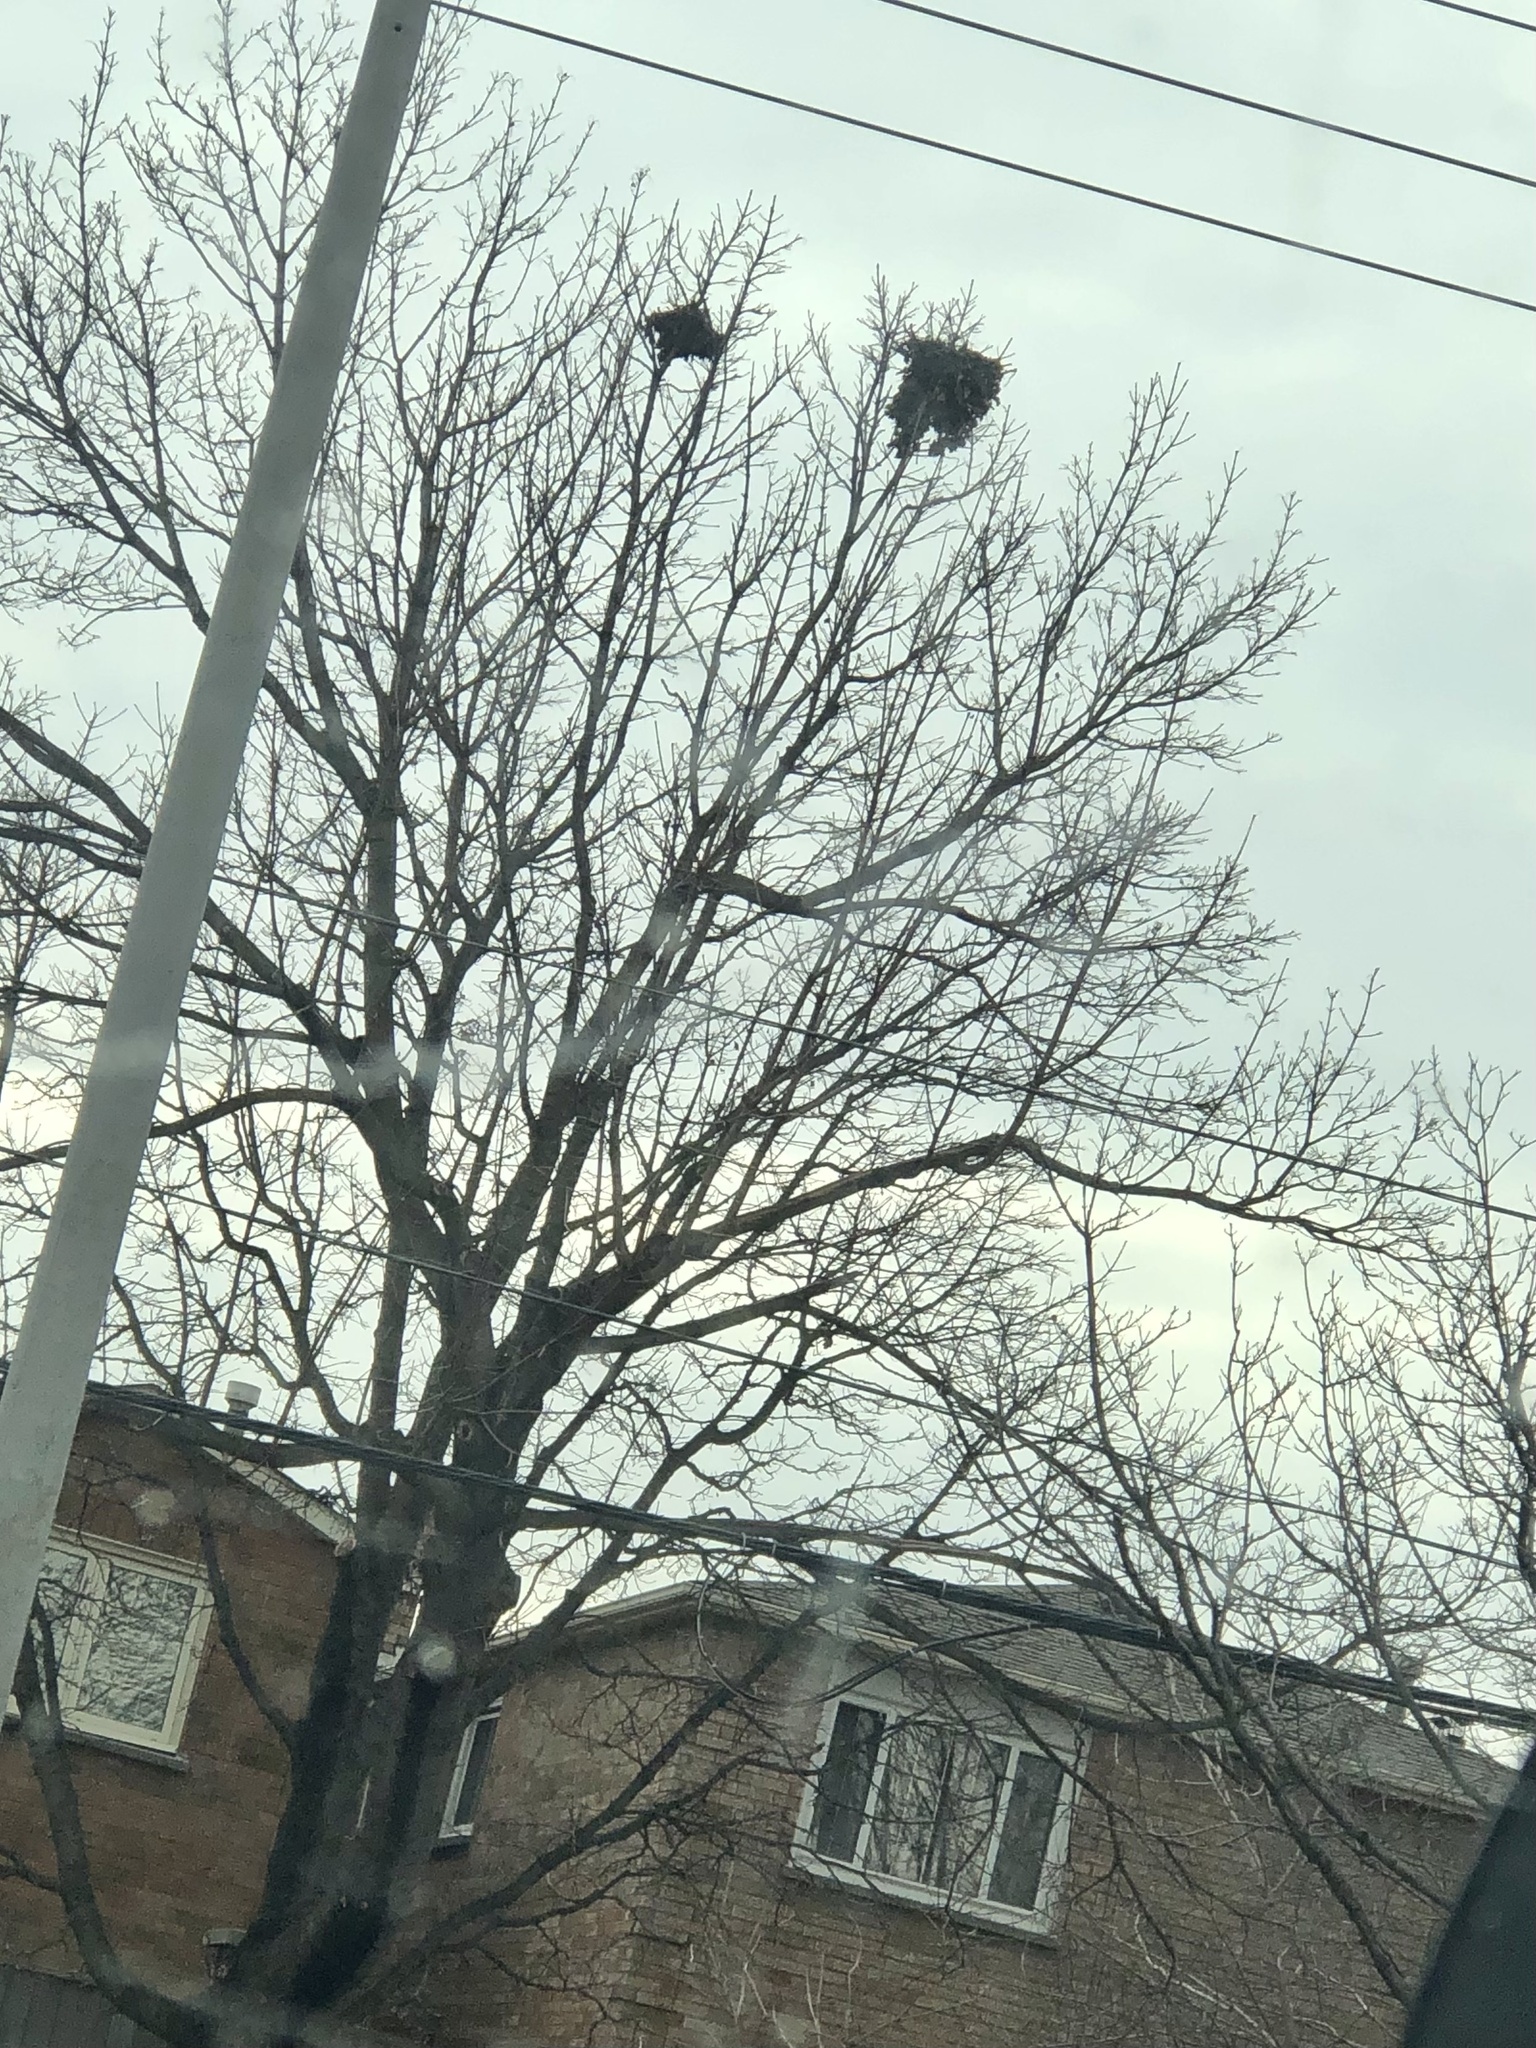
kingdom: Animalia
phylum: Chordata
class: Mammalia
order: Rodentia
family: Sciuridae
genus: Sciurus
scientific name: Sciurus carolinensis
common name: Eastern gray squirrel
